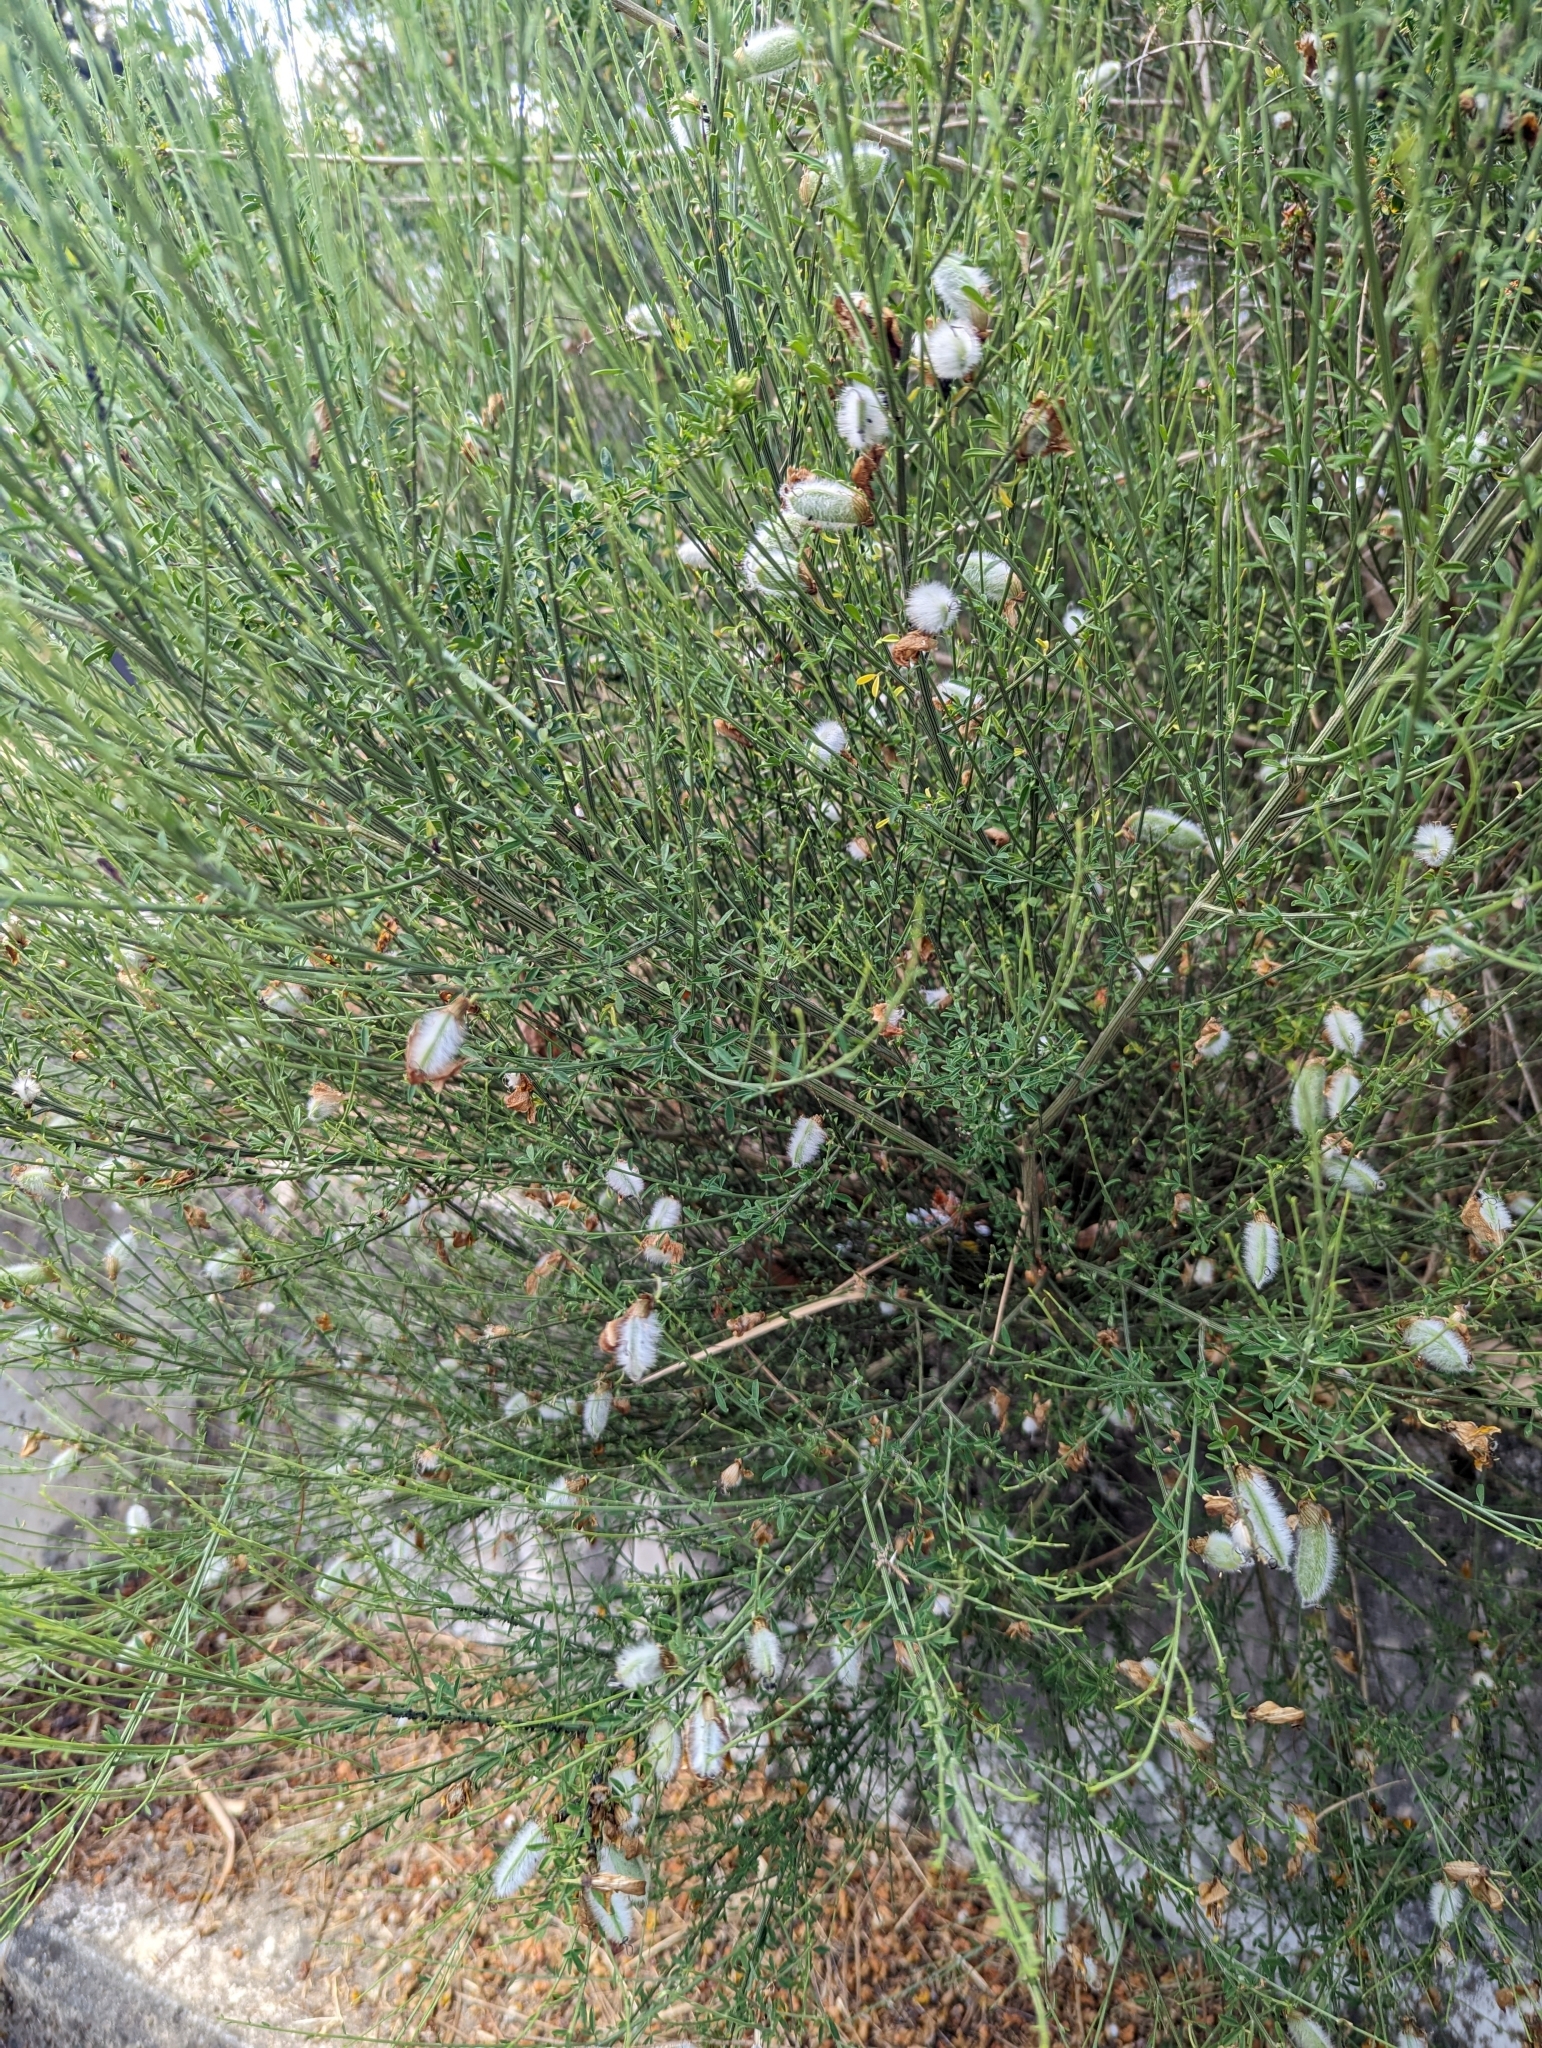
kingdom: Plantae
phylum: Tracheophyta
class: Magnoliopsida
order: Fabales
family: Fabaceae
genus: Cytisus
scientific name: Cytisus striatus
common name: Hairy-fruited broom
